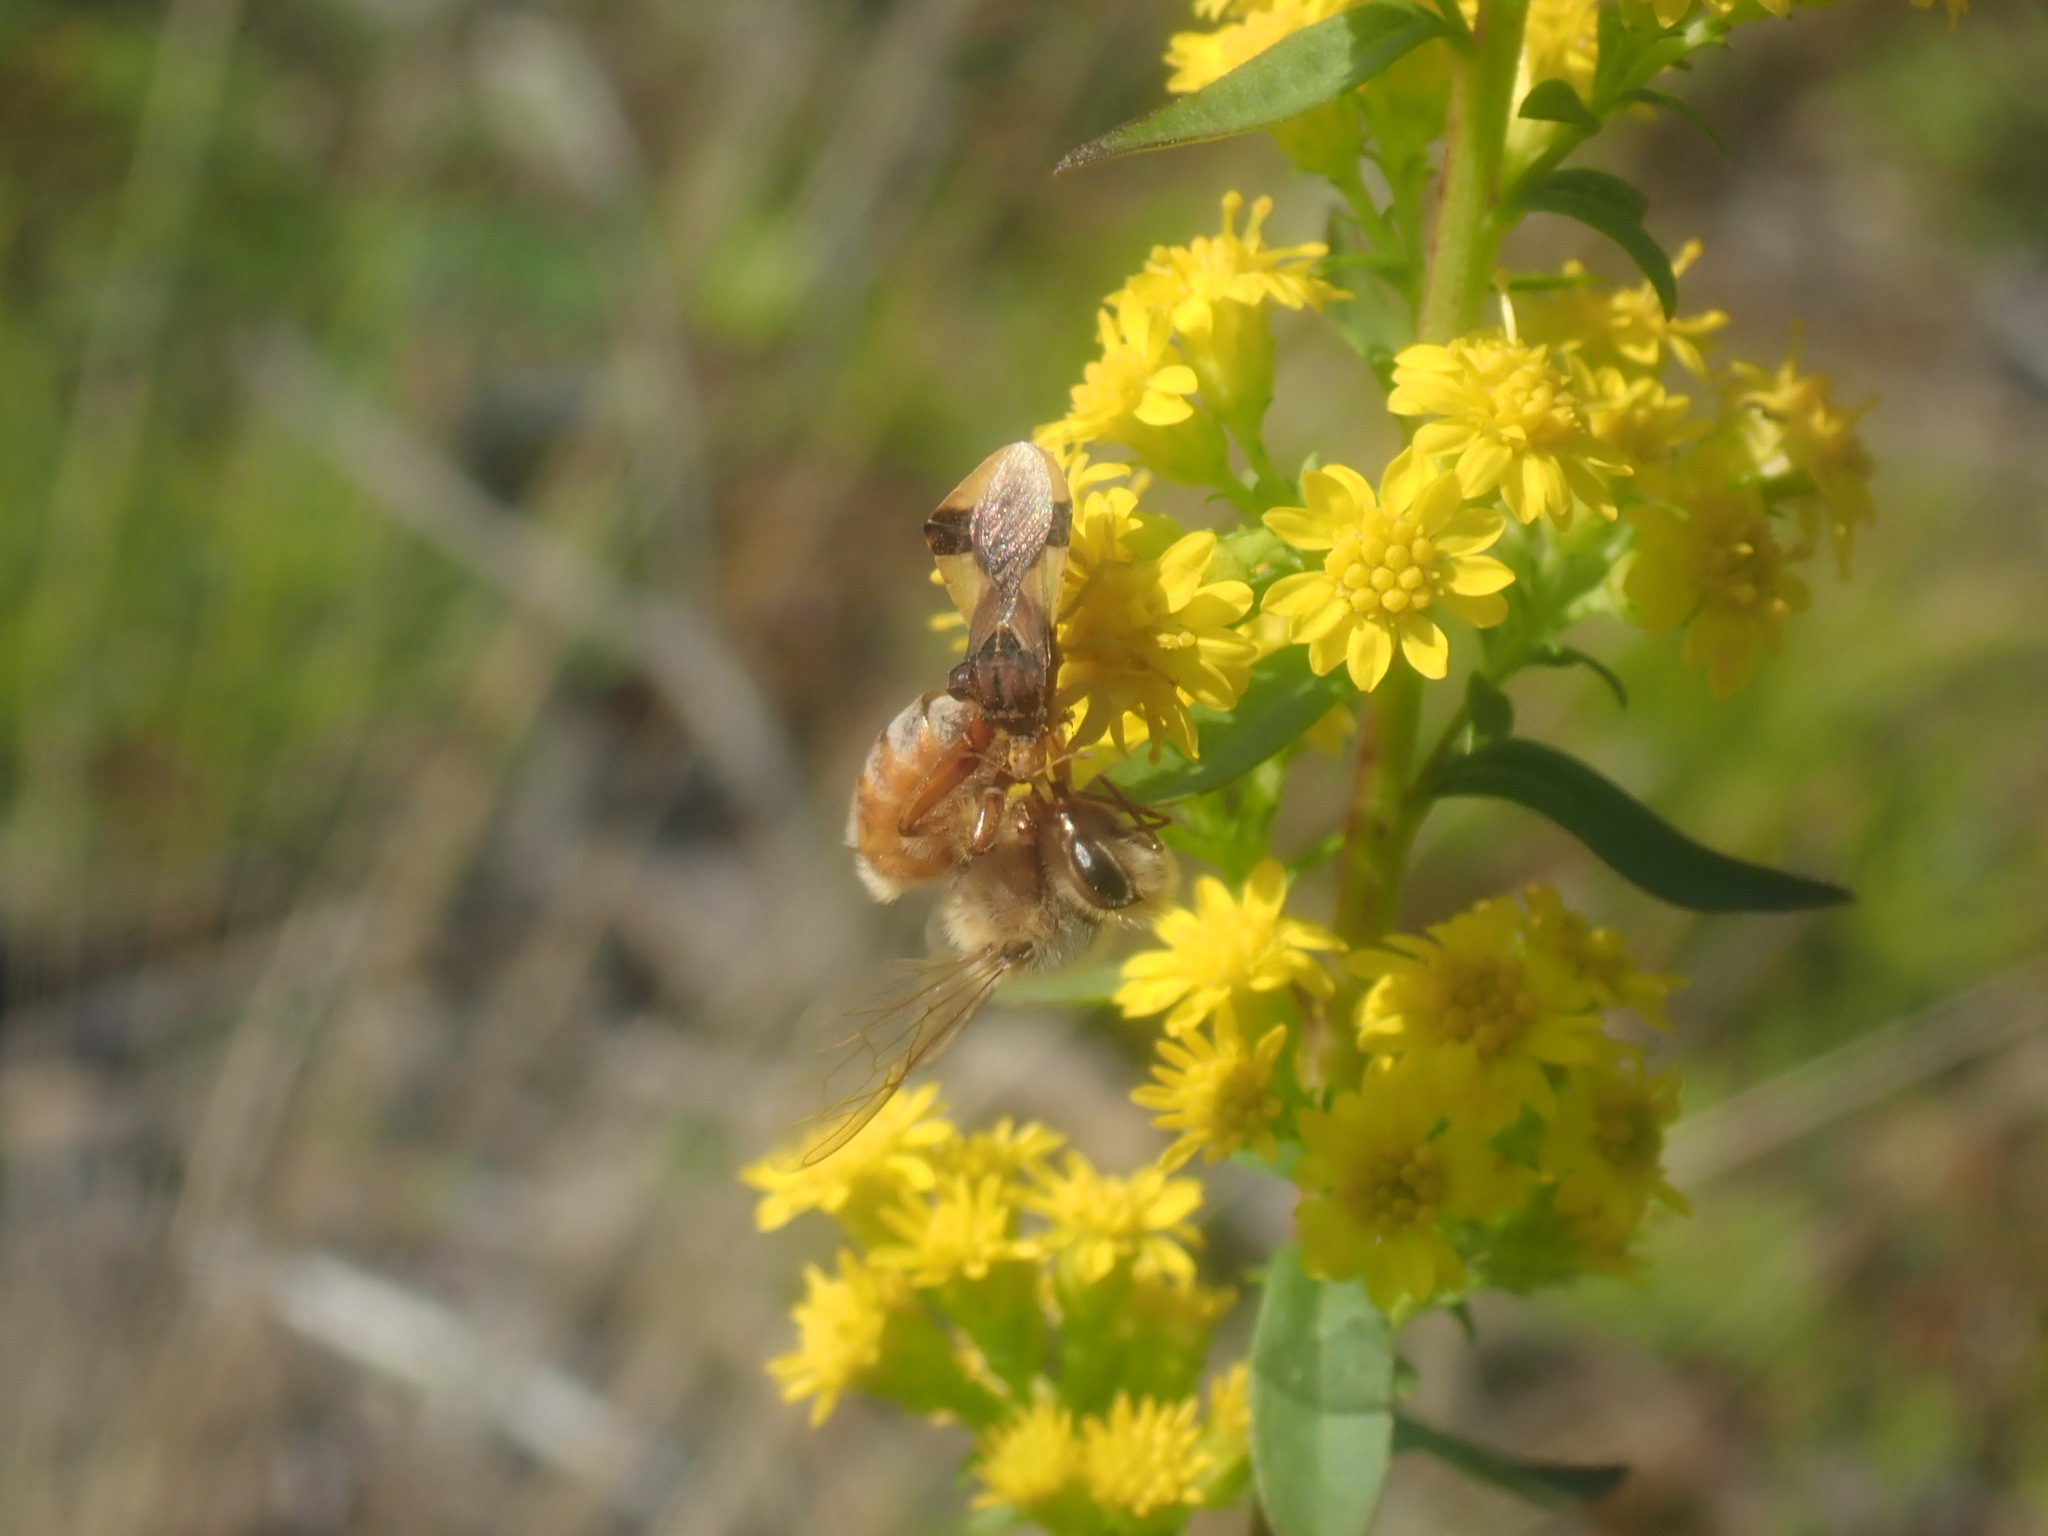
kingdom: Animalia
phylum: Arthropoda
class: Insecta
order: Hymenoptera
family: Apidae
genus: Apis
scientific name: Apis mellifera
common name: Honey bee
